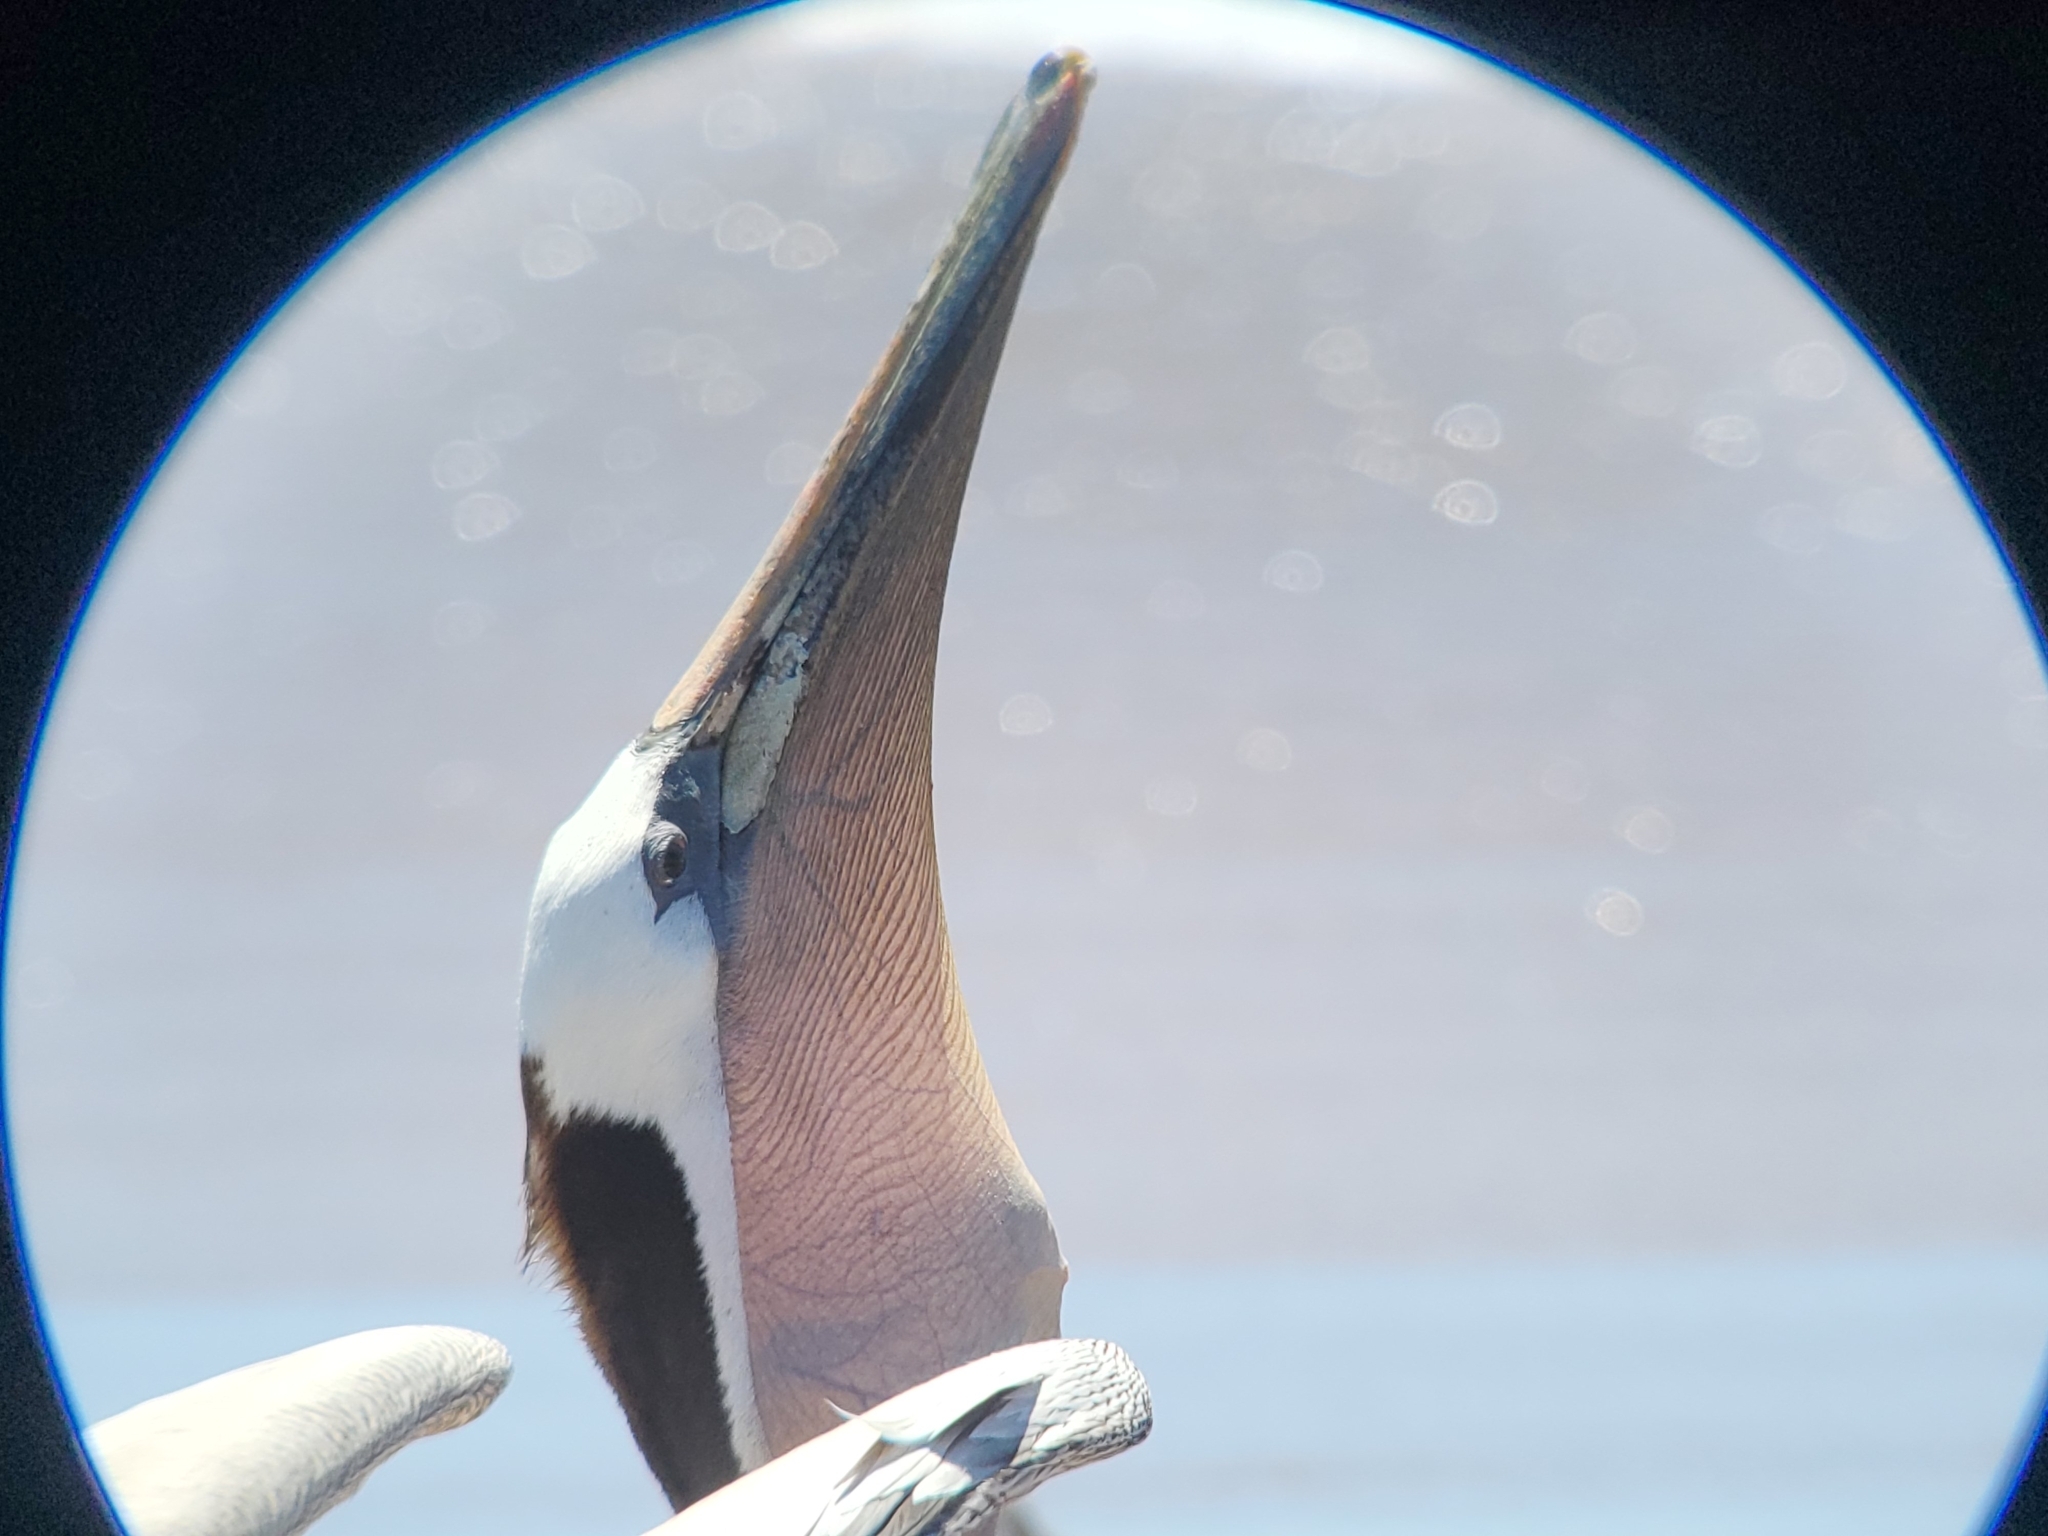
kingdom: Animalia
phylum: Chordata
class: Aves
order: Pelecaniformes
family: Pelecanidae
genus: Pelecanus
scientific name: Pelecanus occidentalis
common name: Brown pelican
